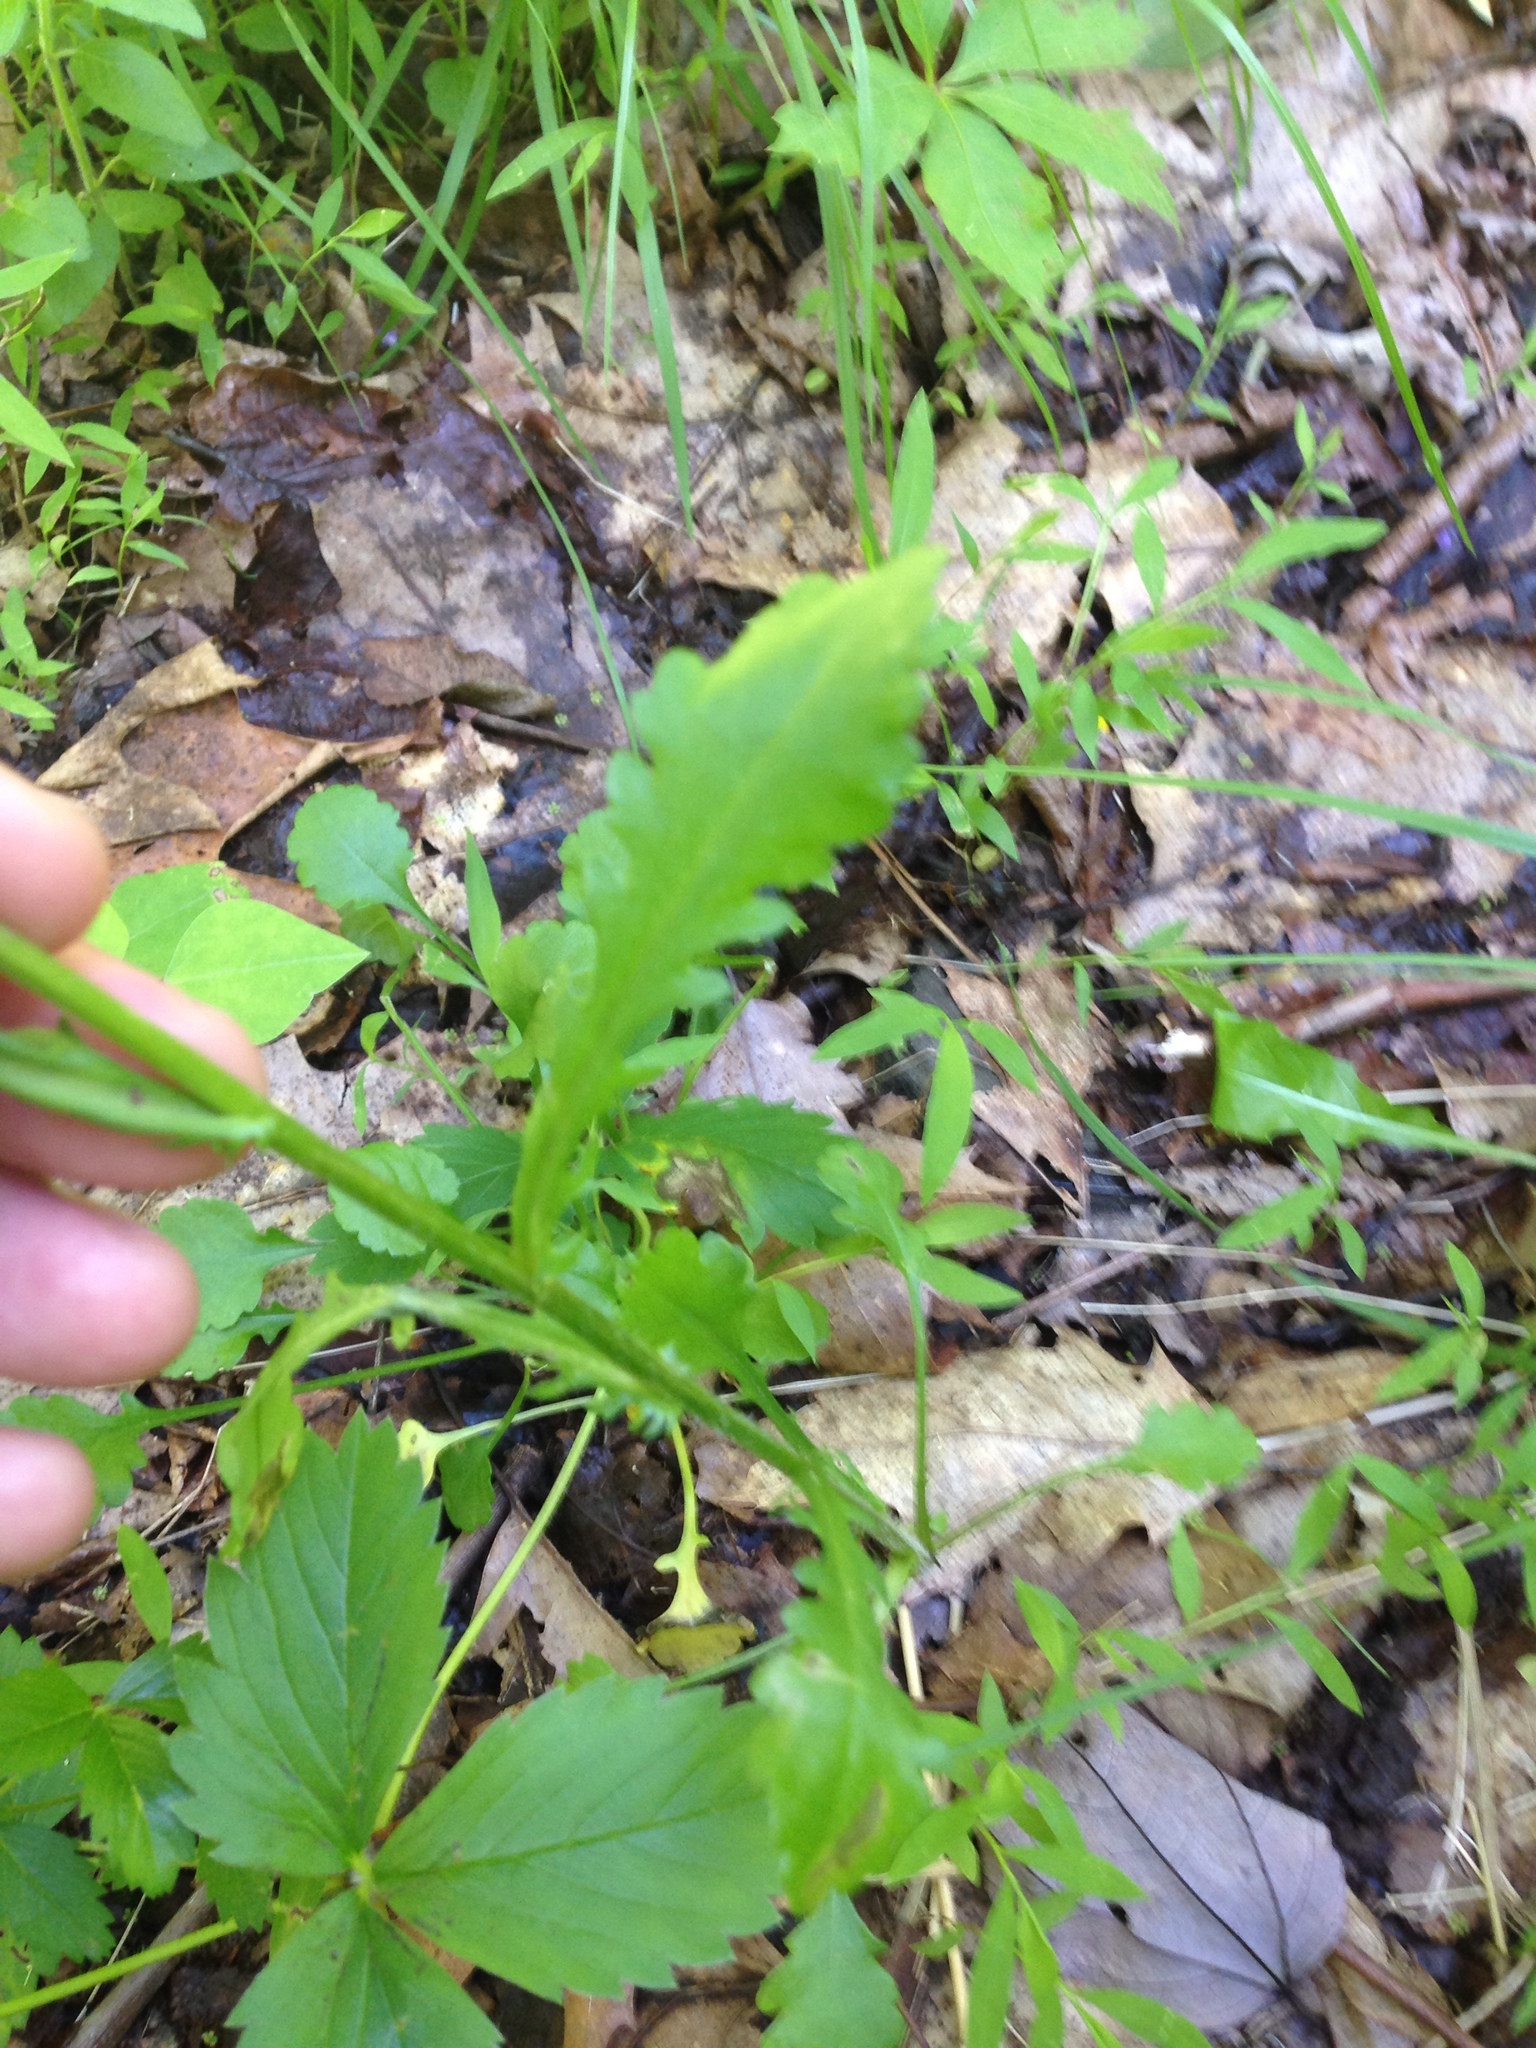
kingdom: Plantae
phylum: Tracheophyta
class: Magnoliopsida
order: Asterales
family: Asteraceae
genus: Leucanthemum
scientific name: Leucanthemum vulgare
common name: Oxeye daisy
